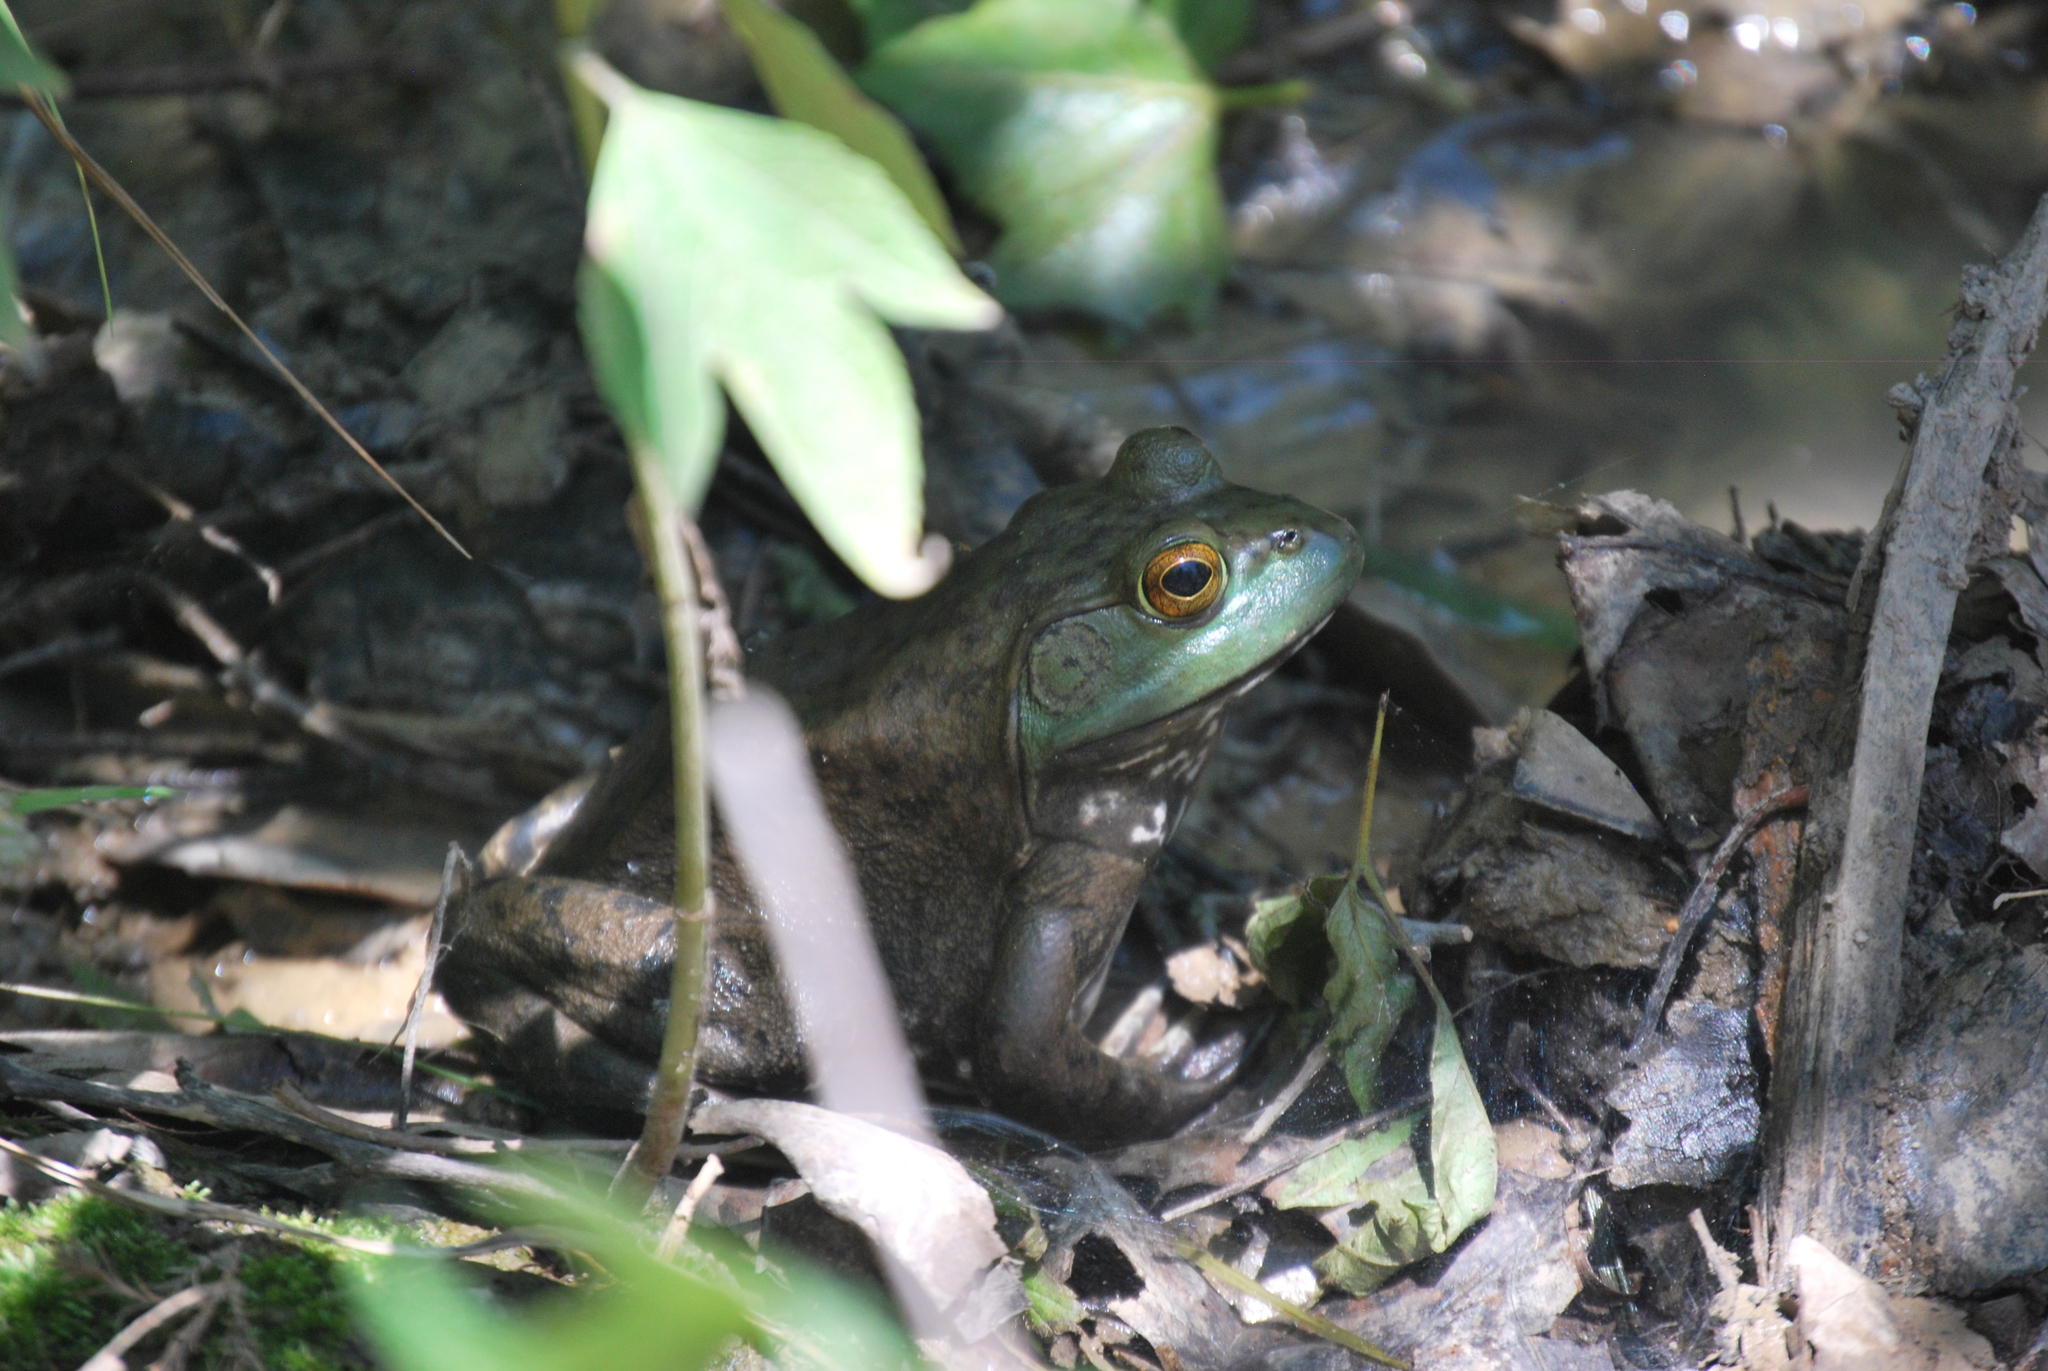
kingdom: Animalia
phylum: Chordata
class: Amphibia
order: Anura
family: Ranidae
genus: Lithobates
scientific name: Lithobates catesbeianus
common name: American bullfrog
